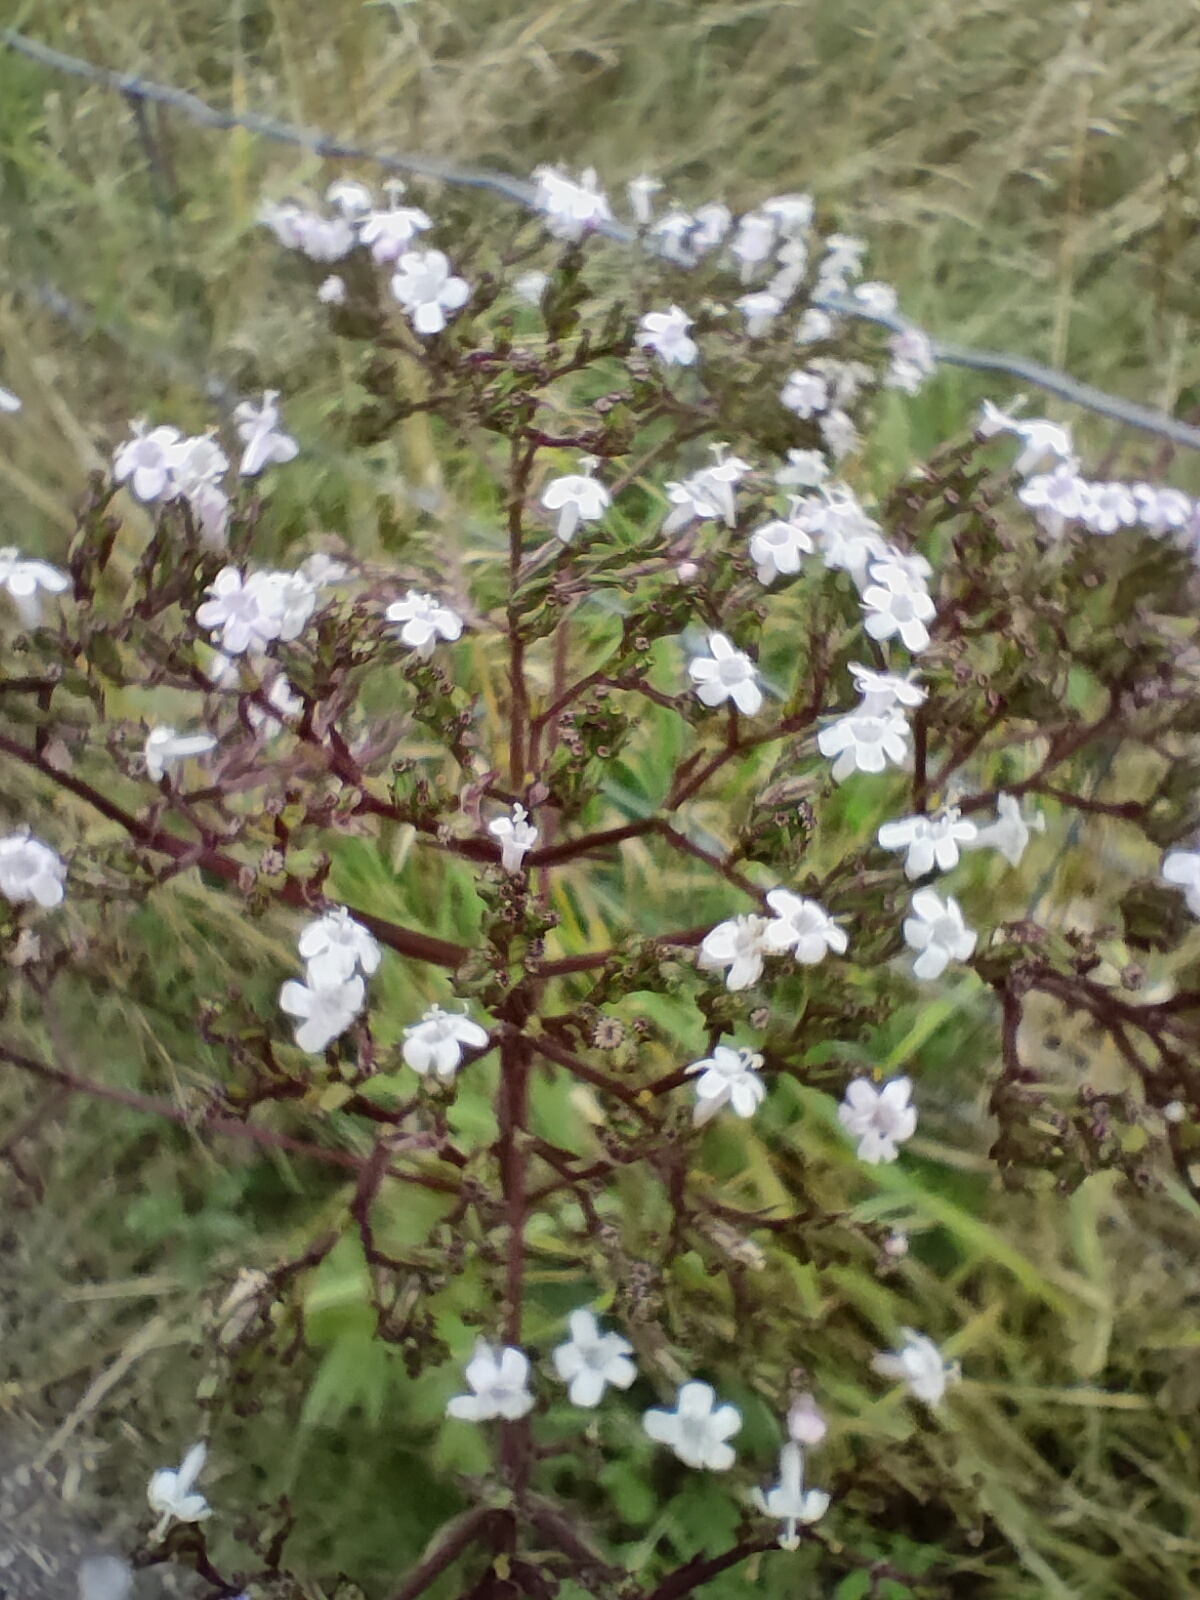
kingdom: Plantae
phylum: Tracheophyta
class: Magnoliopsida
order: Dipsacales
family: Caprifoliaceae
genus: Valeriana
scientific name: Valeriana officinalis
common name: Common valerian
